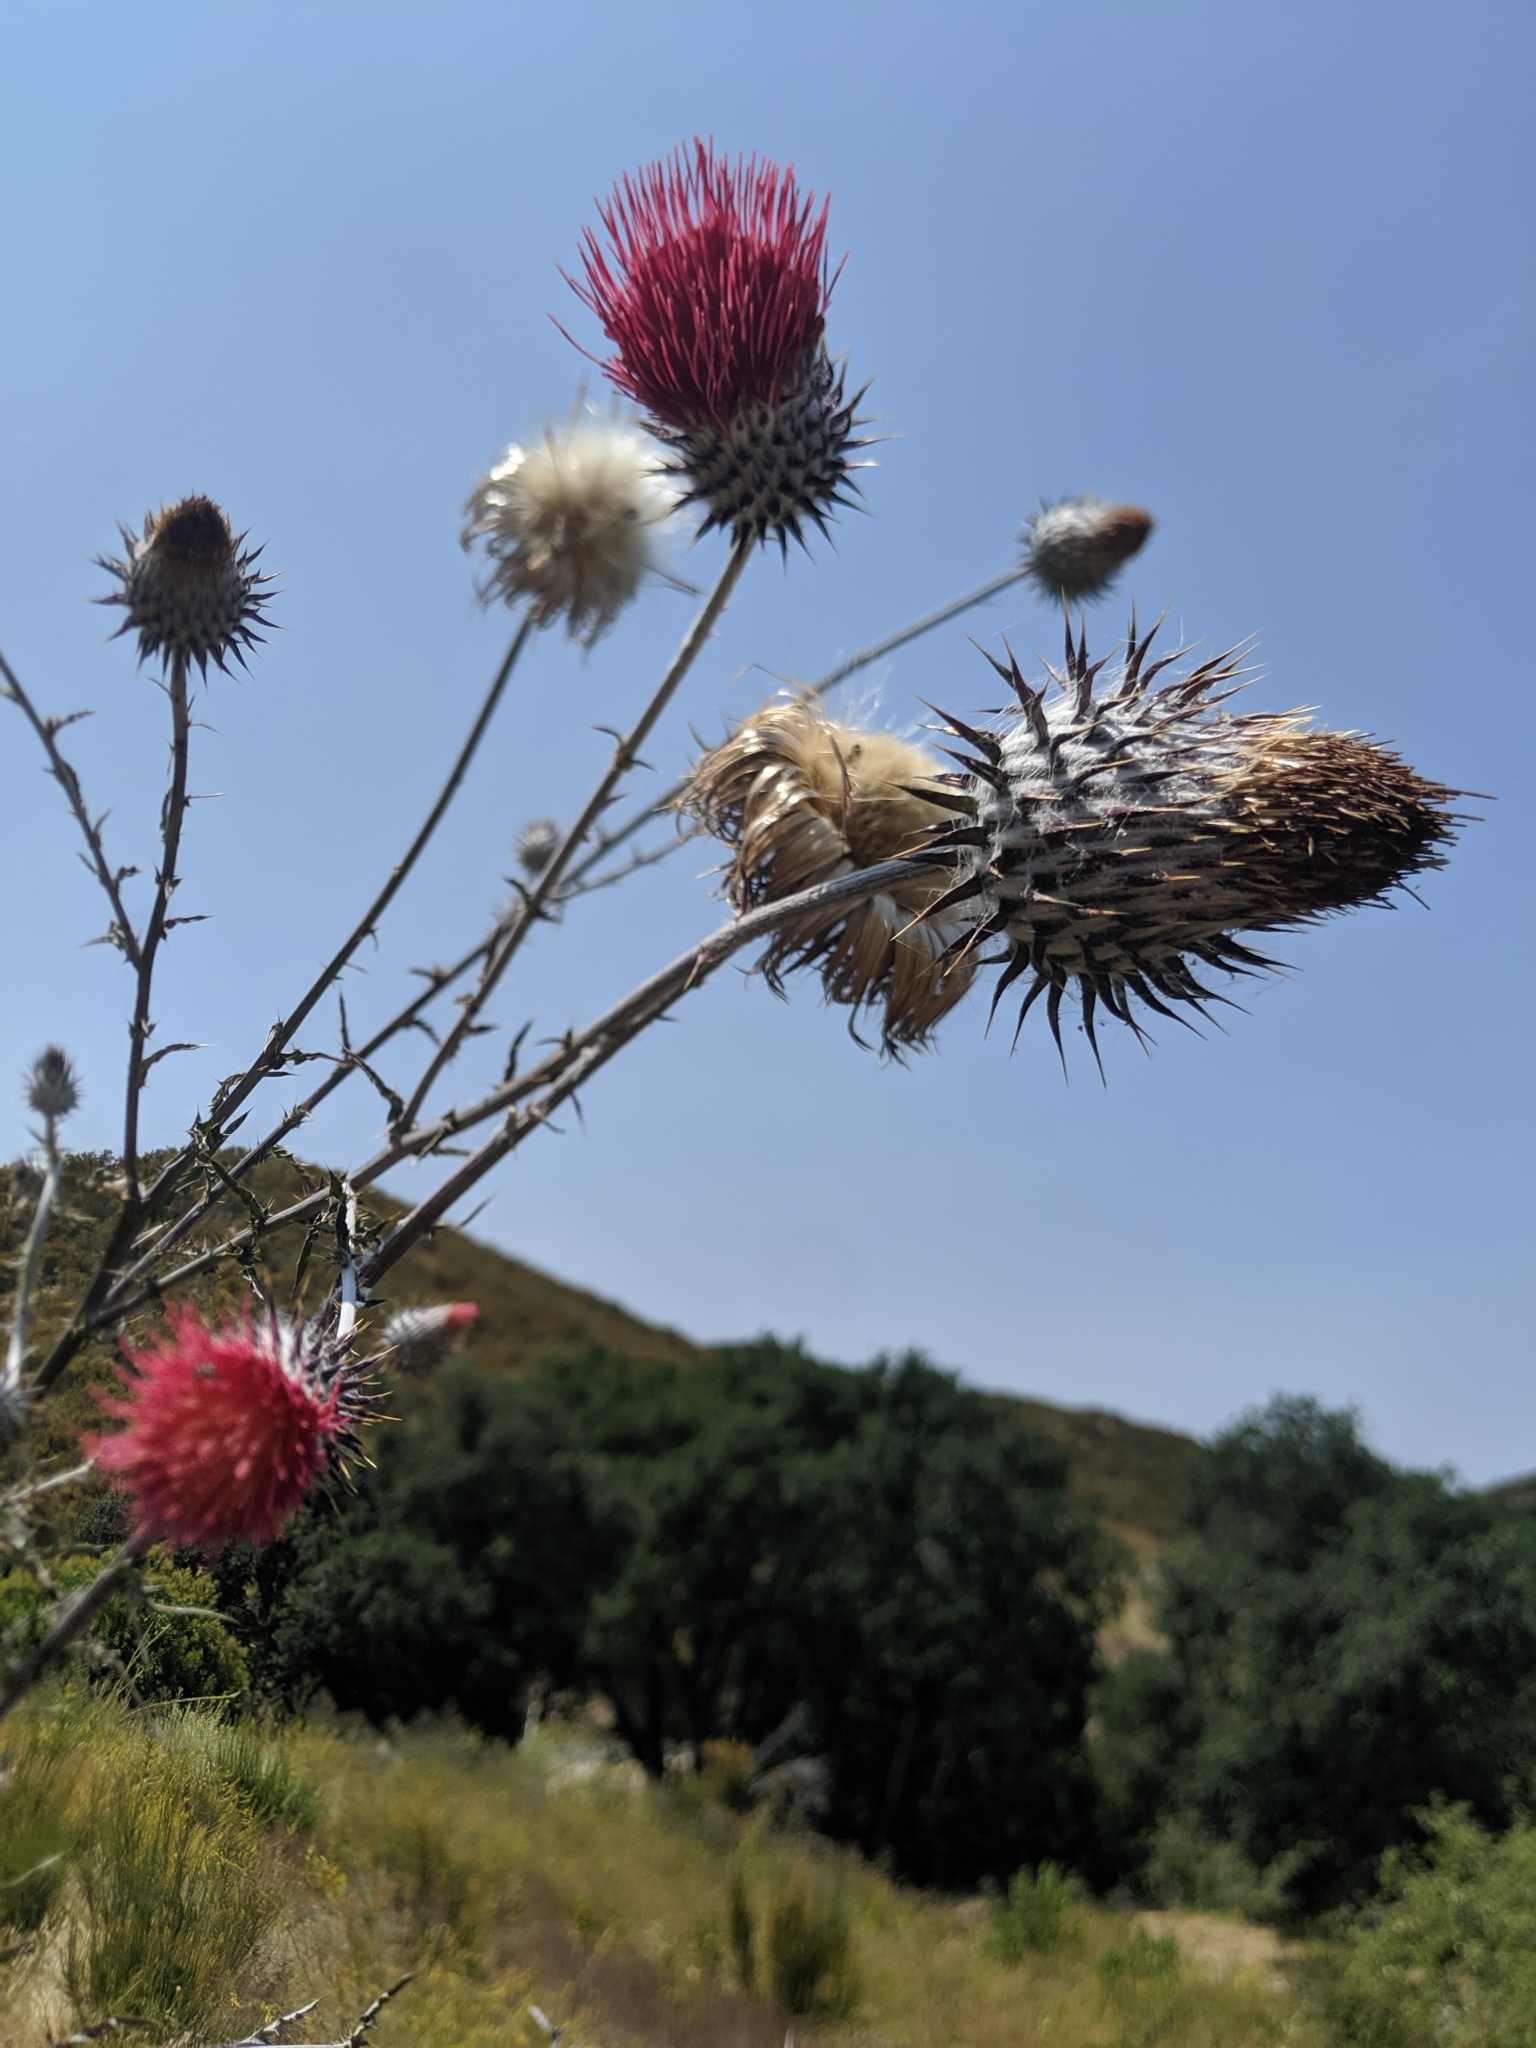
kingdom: Plantae
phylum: Tracheophyta
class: Magnoliopsida
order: Asterales
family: Asteraceae
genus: Cirsium
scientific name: Cirsium occidentale
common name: Western thistle
